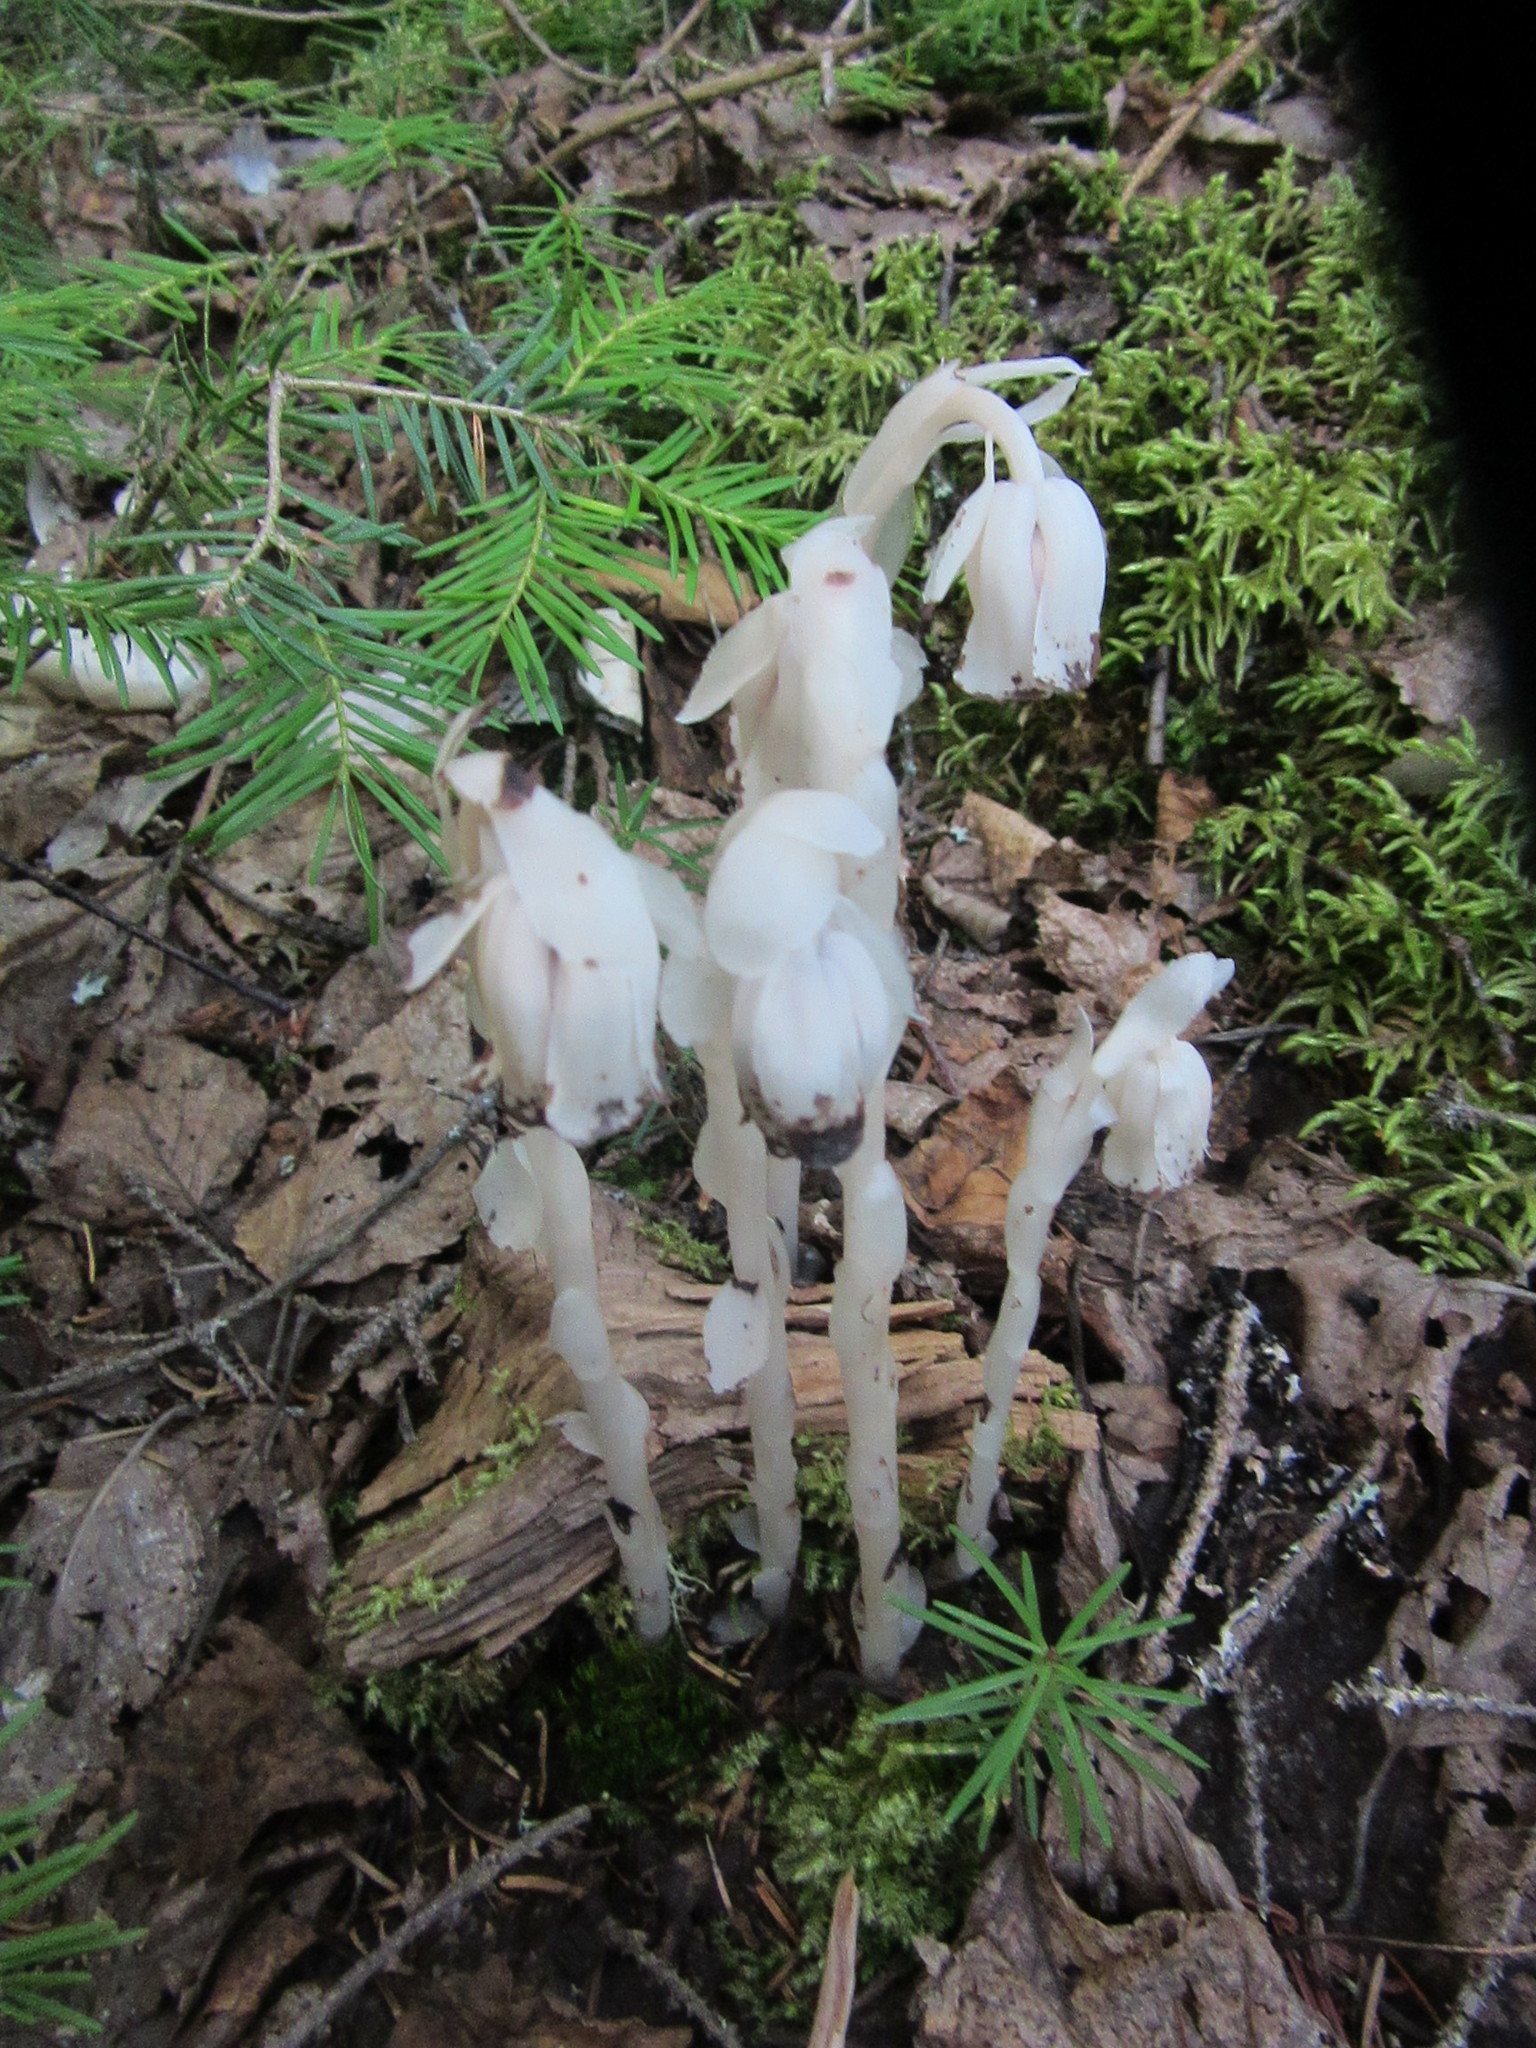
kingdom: Plantae
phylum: Tracheophyta
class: Magnoliopsida
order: Ericales
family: Ericaceae
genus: Monotropa
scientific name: Monotropa uniflora
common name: Convulsion root
